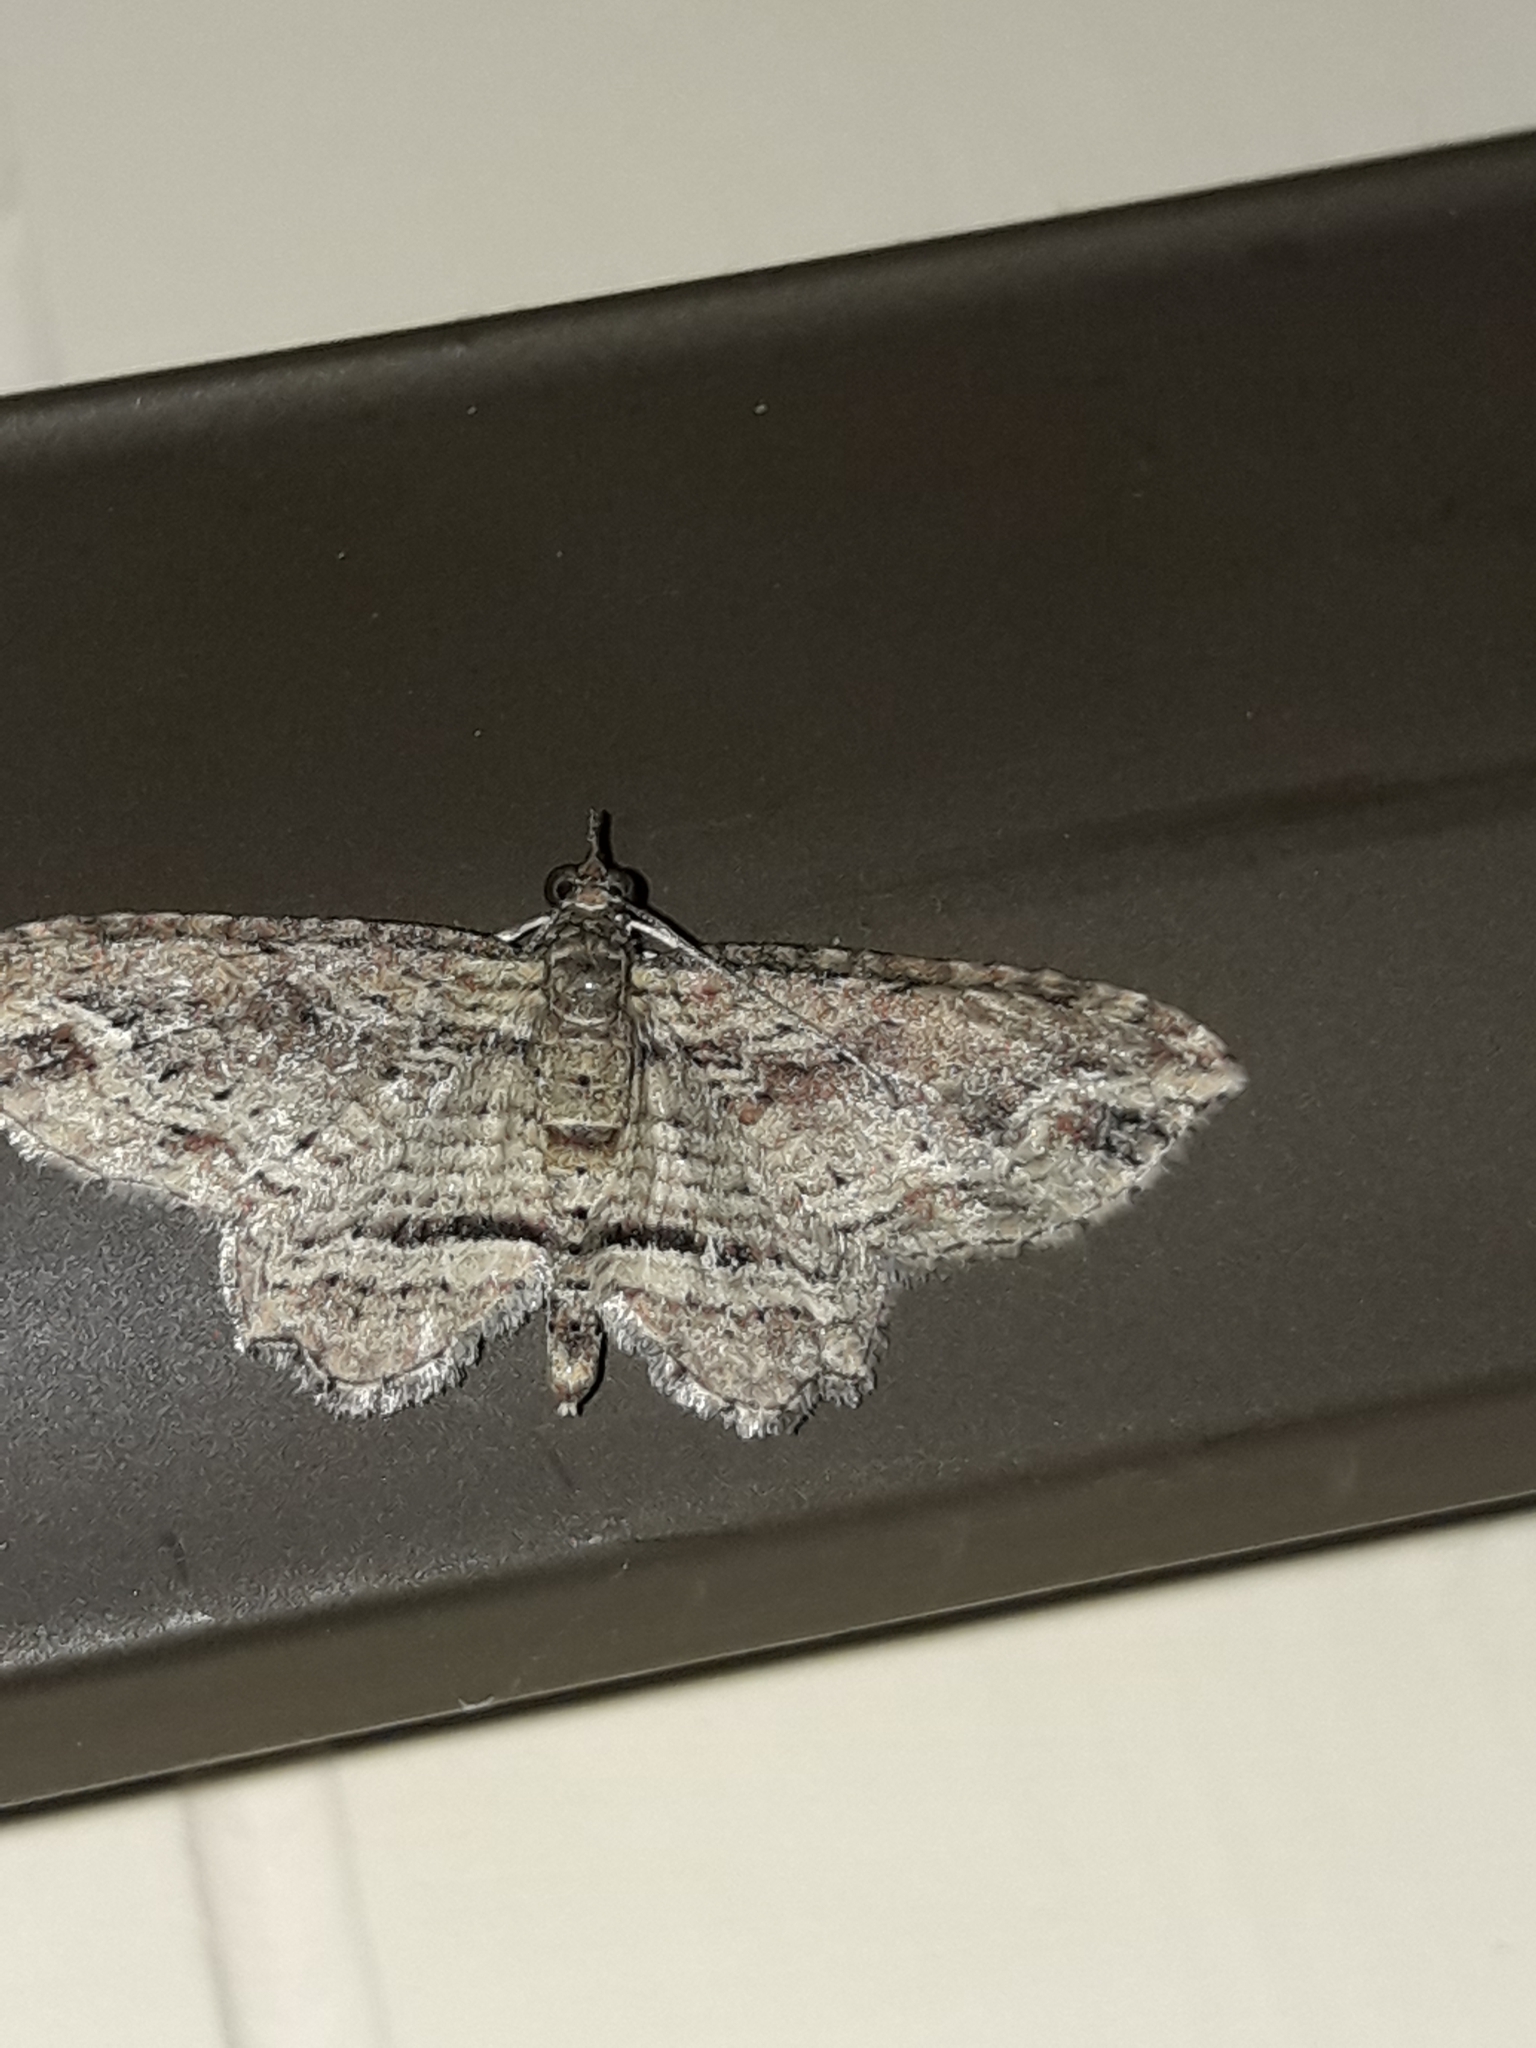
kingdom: Animalia
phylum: Arthropoda
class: Insecta
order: Lepidoptera
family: Geometridae
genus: Chloroclystis
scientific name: Chloroclystis filata
